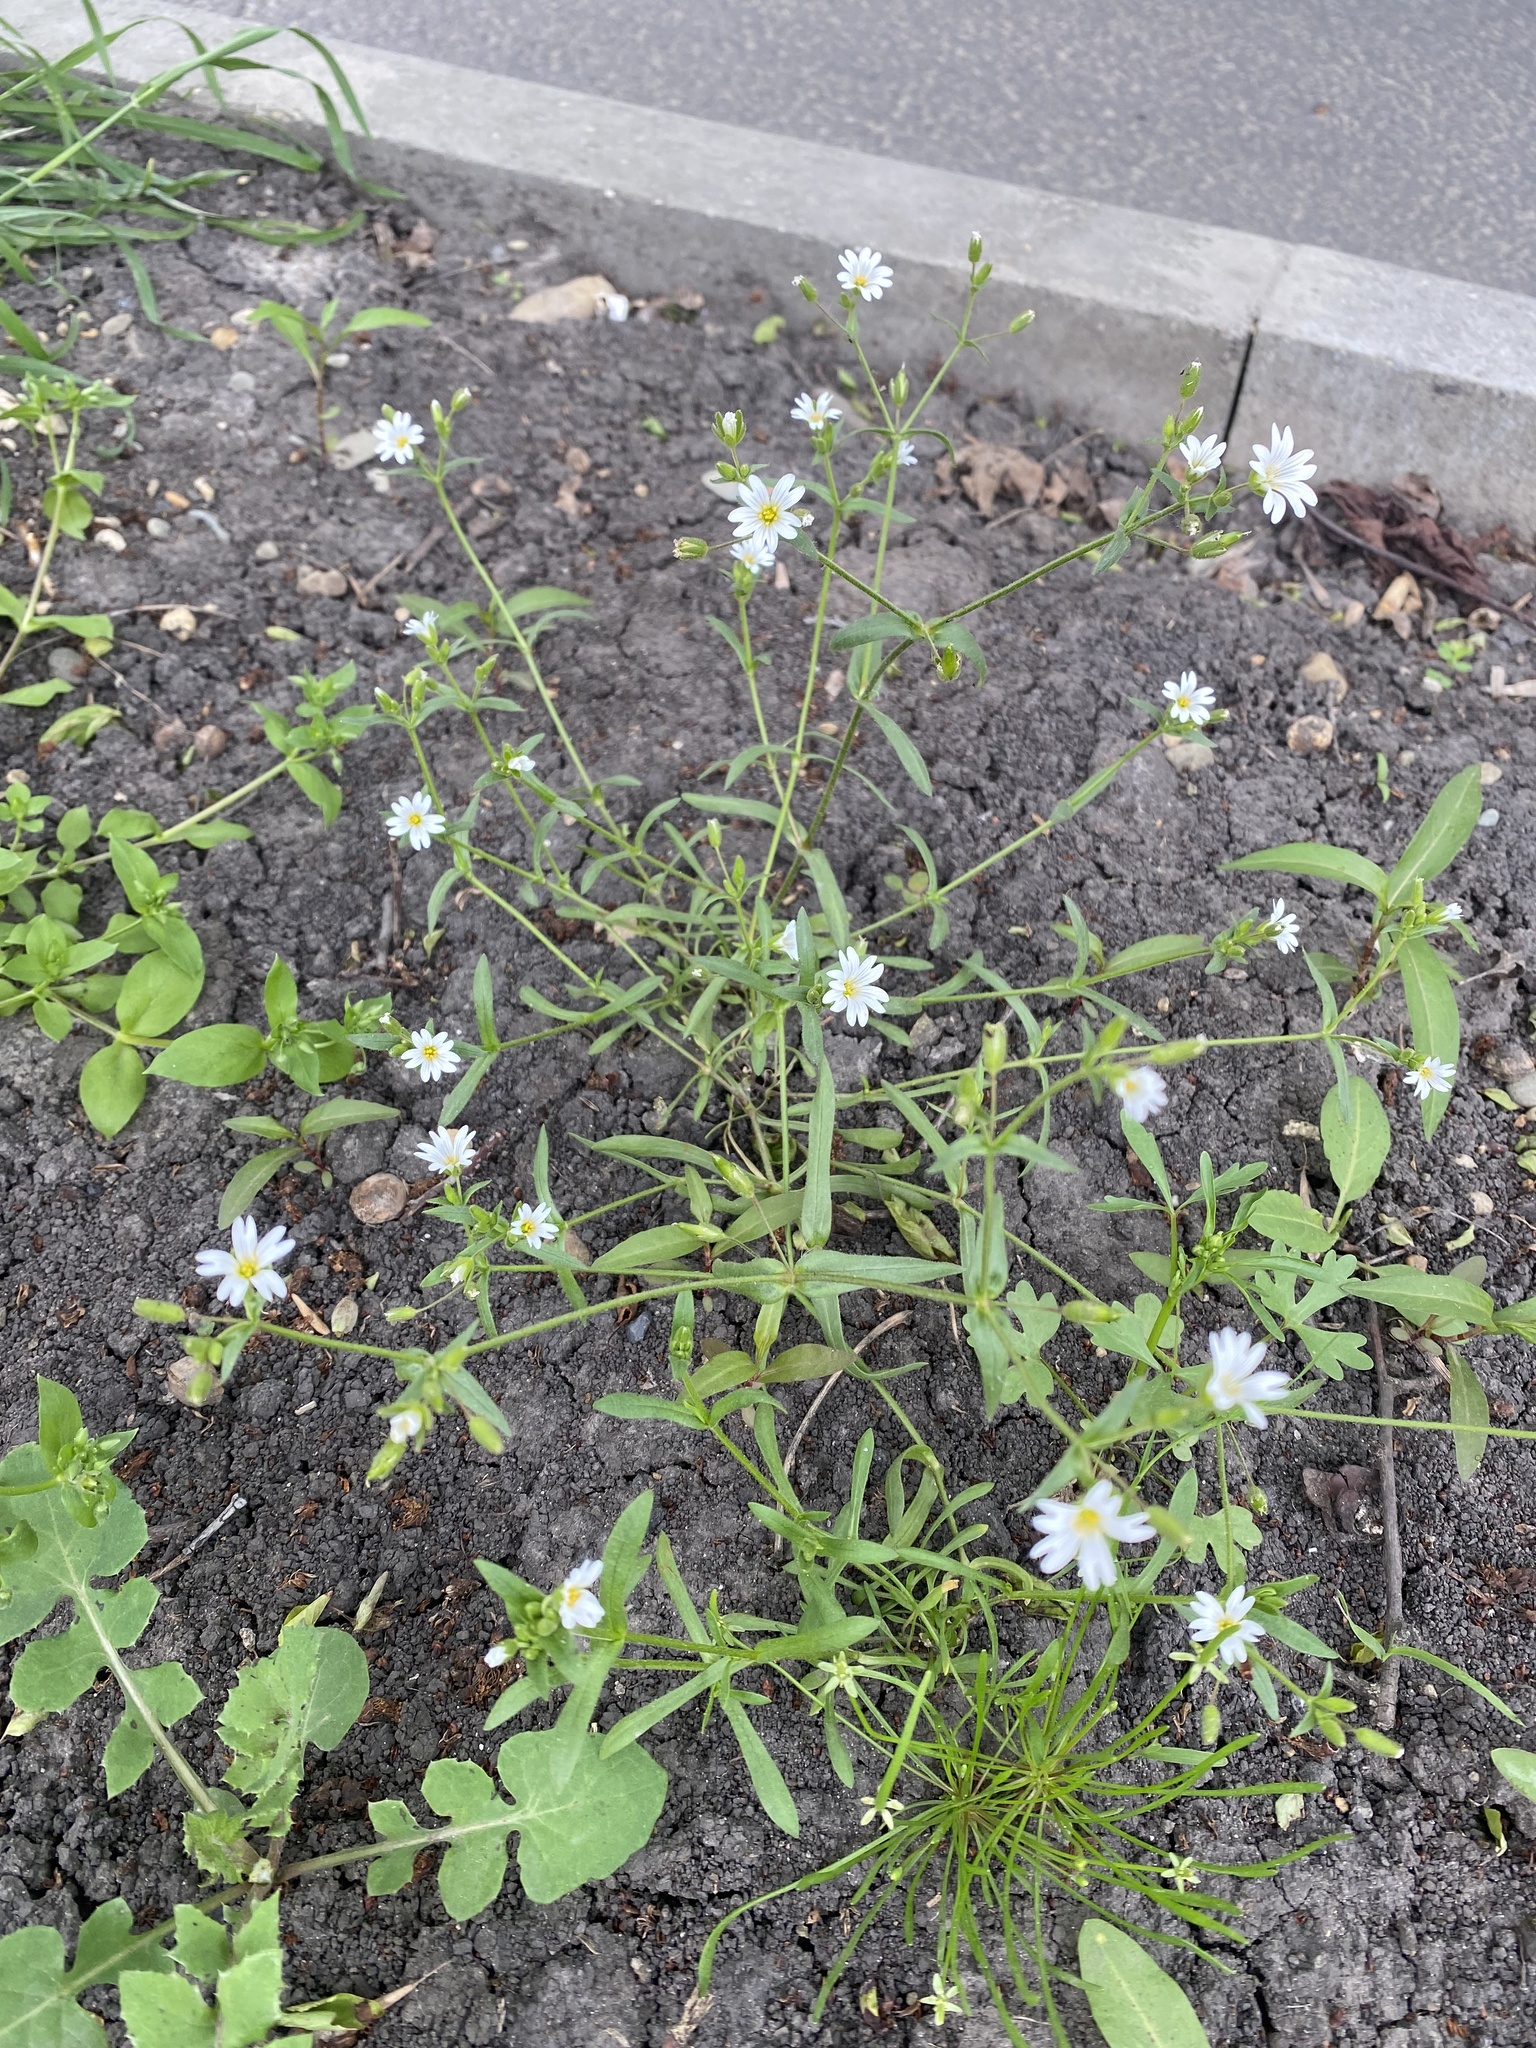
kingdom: Plantae
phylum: Tracheophyta
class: Magnoliopsida
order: Caryophyllales
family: Caryophyllaceae
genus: Dichodon
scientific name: Dichodon viscidum
